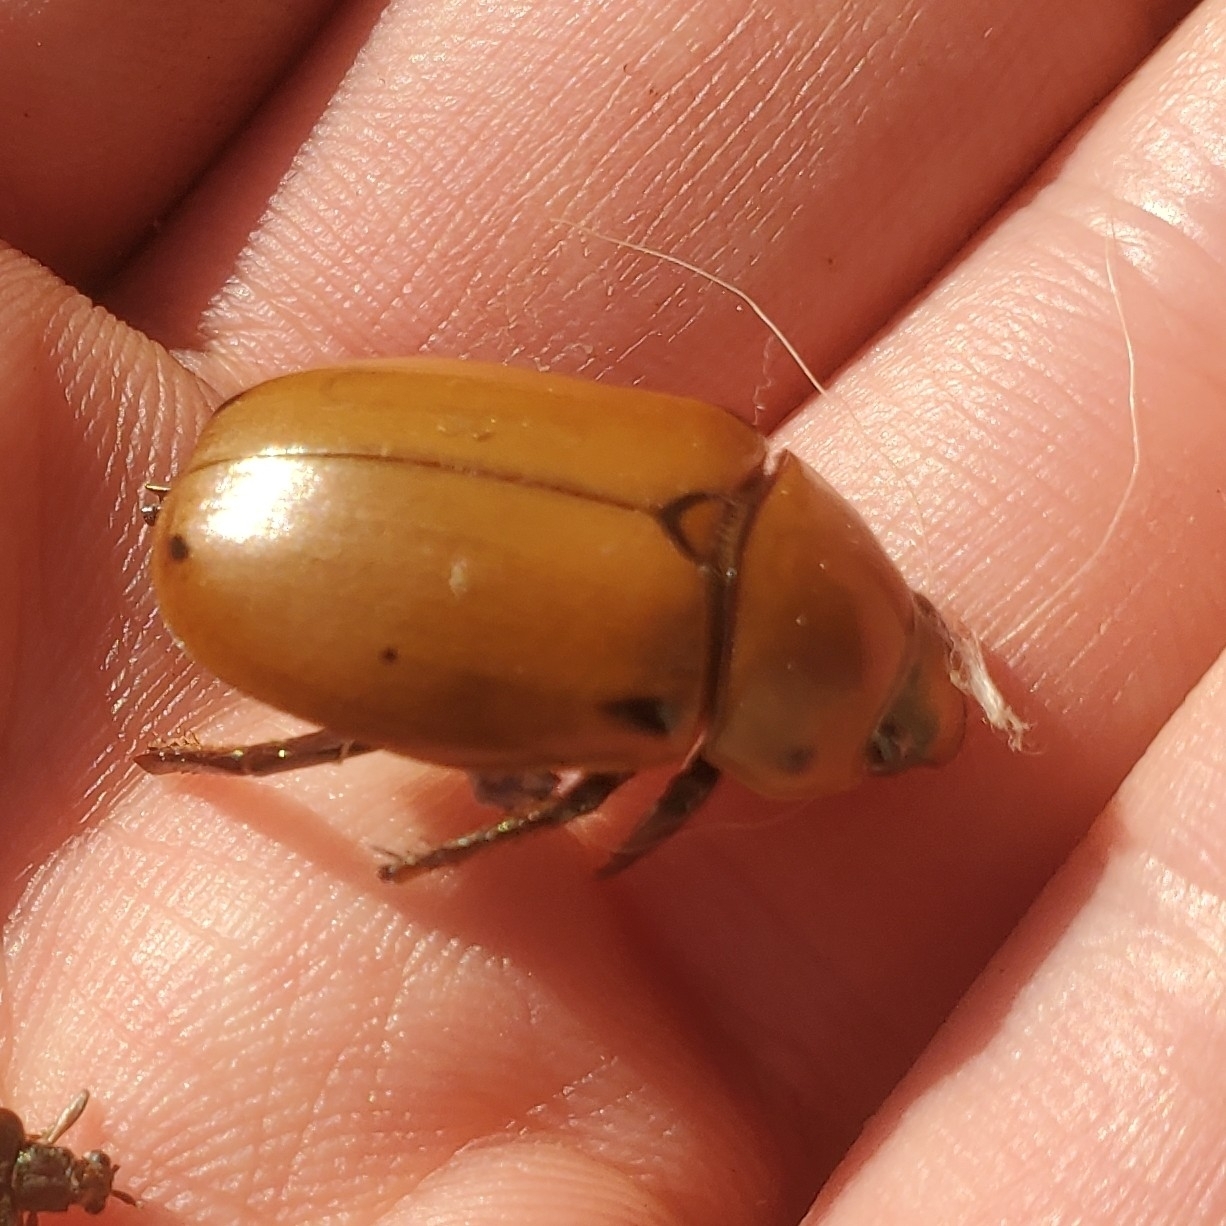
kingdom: Animalia
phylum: Arthropoda
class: Insecta
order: Coleoptera
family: Scarabaeidae
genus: Pelidnota
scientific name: Pelidnota punctata
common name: Grapevine beetle
